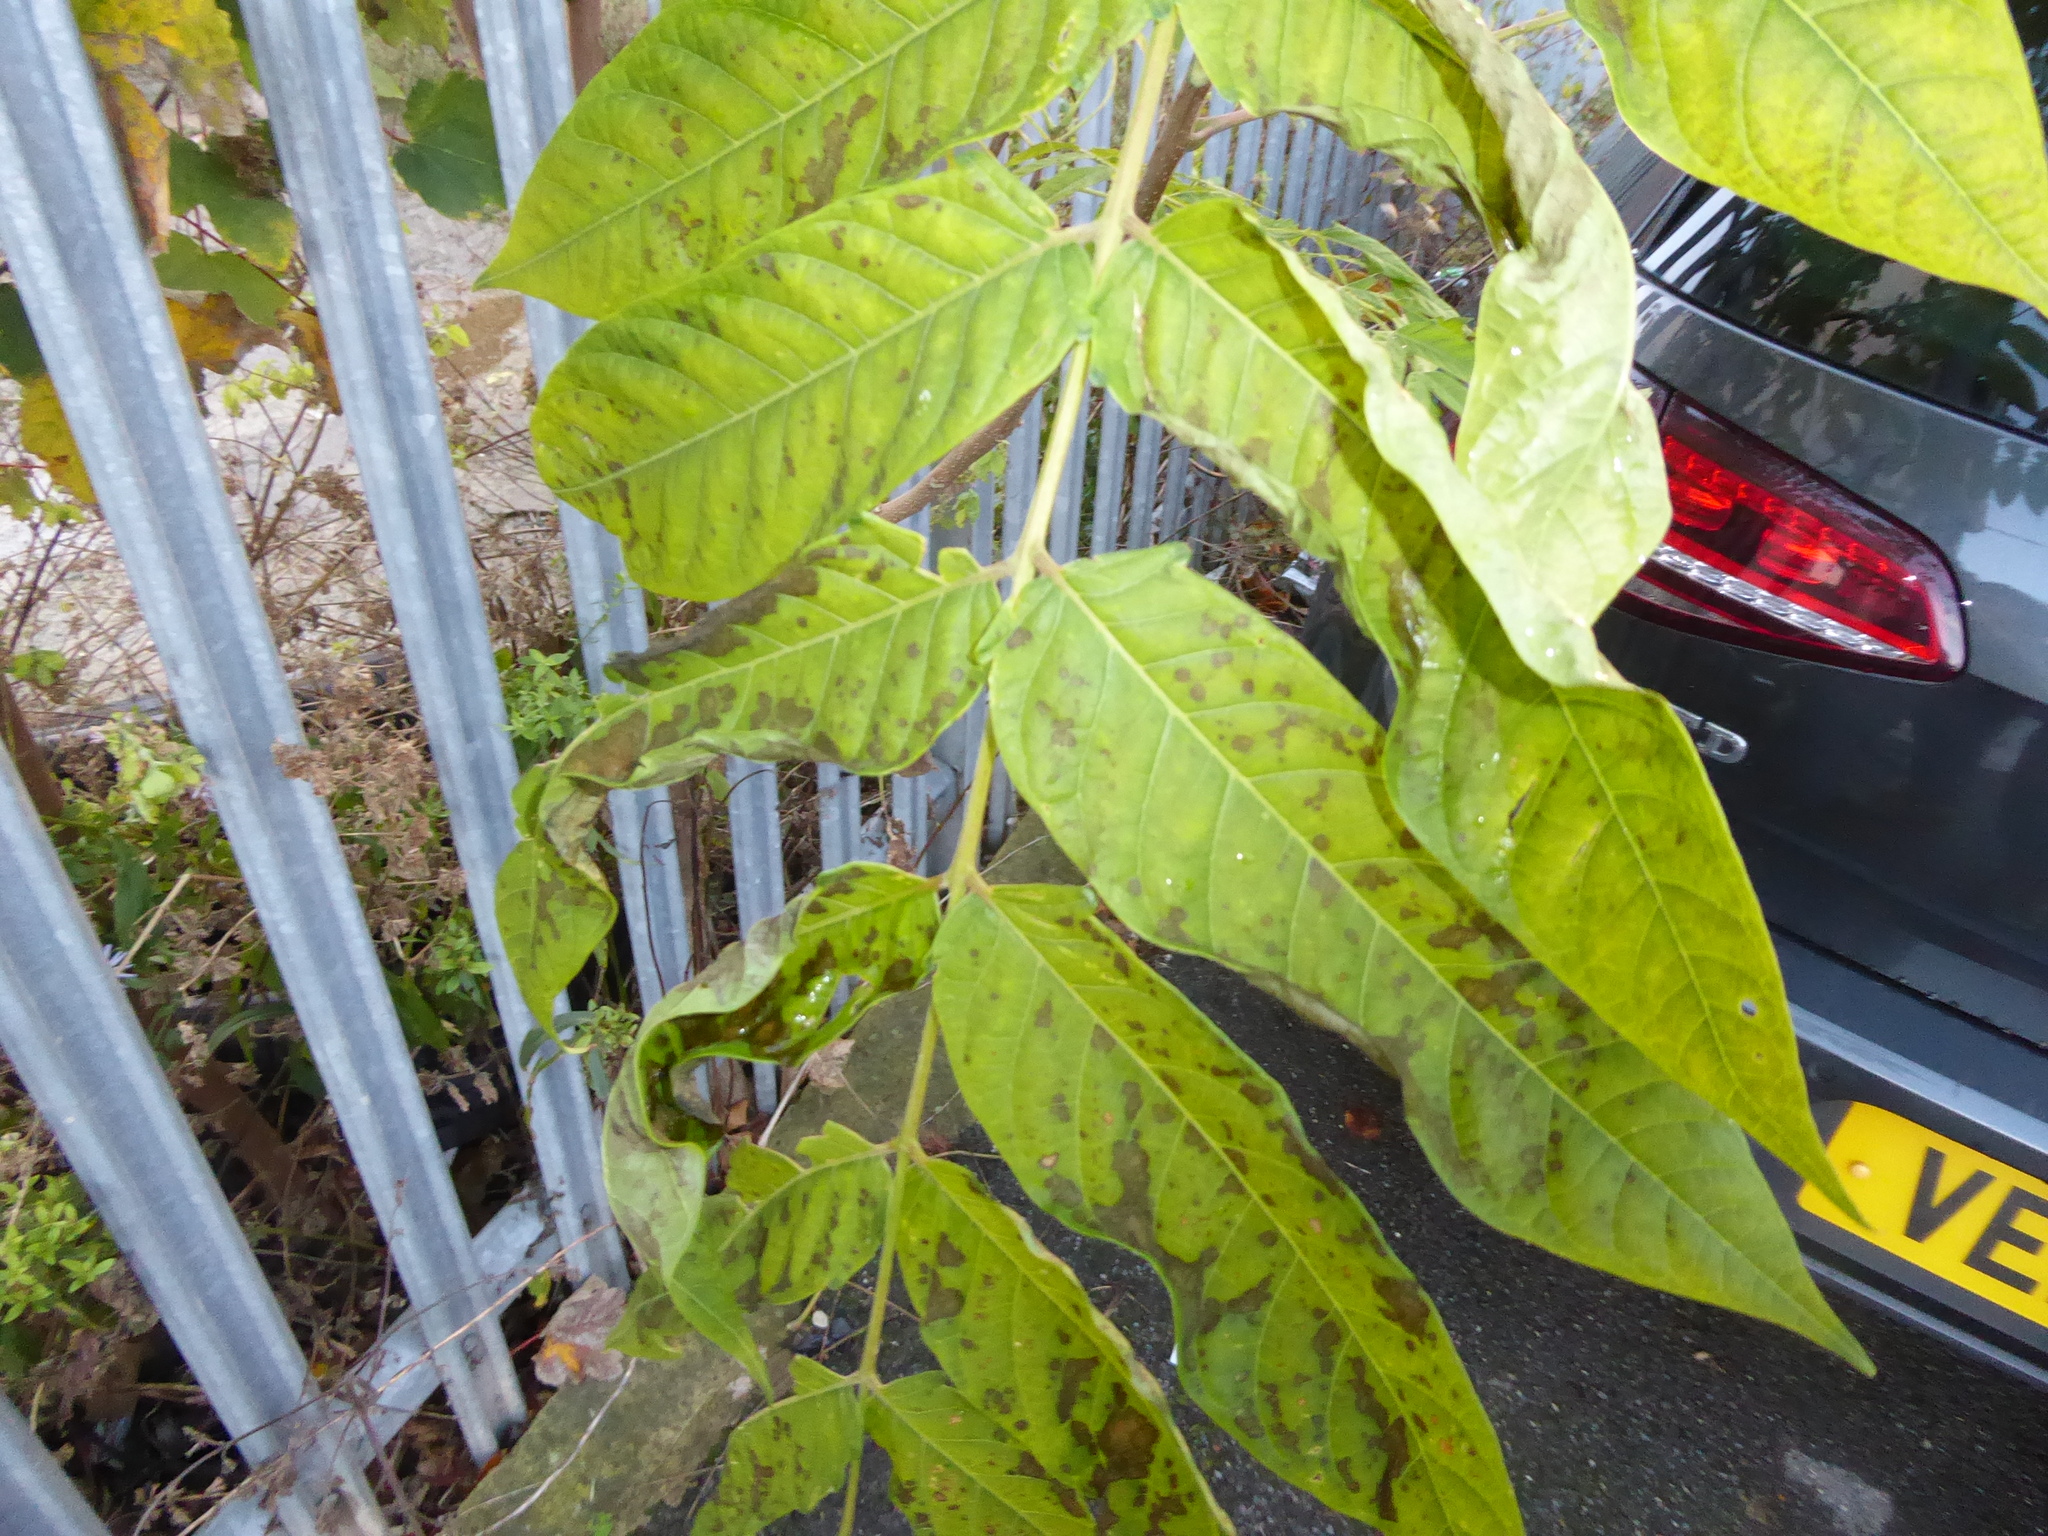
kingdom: Plantae
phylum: Tracheophyta
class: Magnoliopsida
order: Sapindales
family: Simaroubaceae
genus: Ailanthus
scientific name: Ailanthus altissima
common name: Tree-of-heaven
